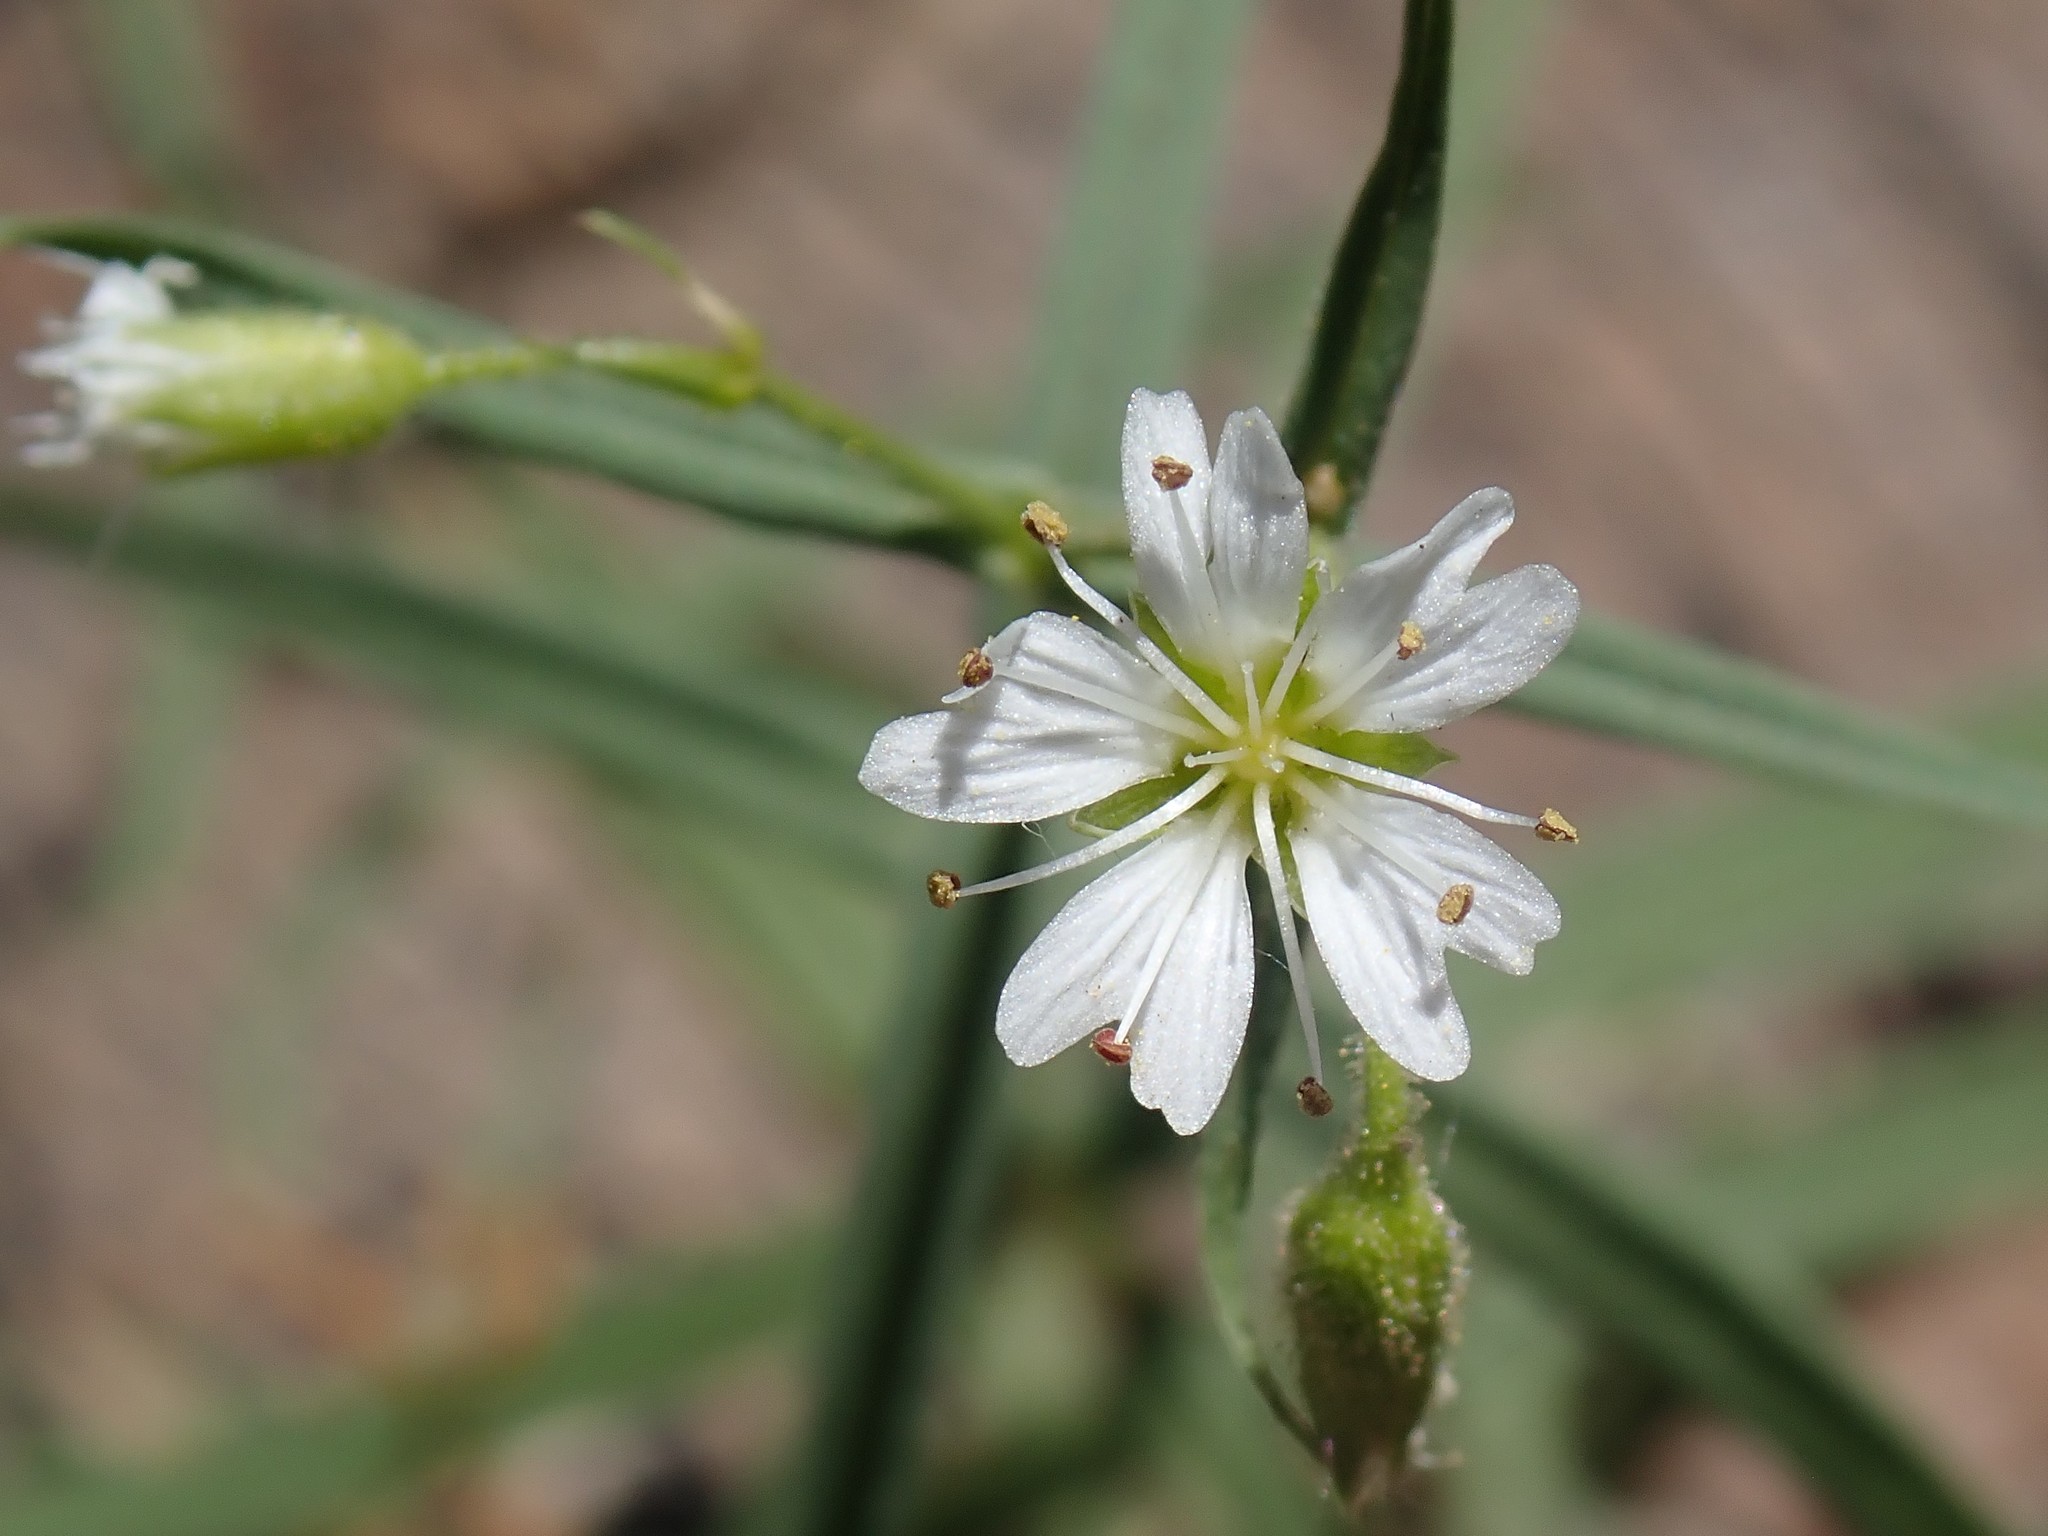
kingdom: Plantae
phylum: Tracheophyta
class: Magnoliopsida
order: Caryophyllales
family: Caryophyllaceae
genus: Schizotechium
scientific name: Schizotechium jamesianum
